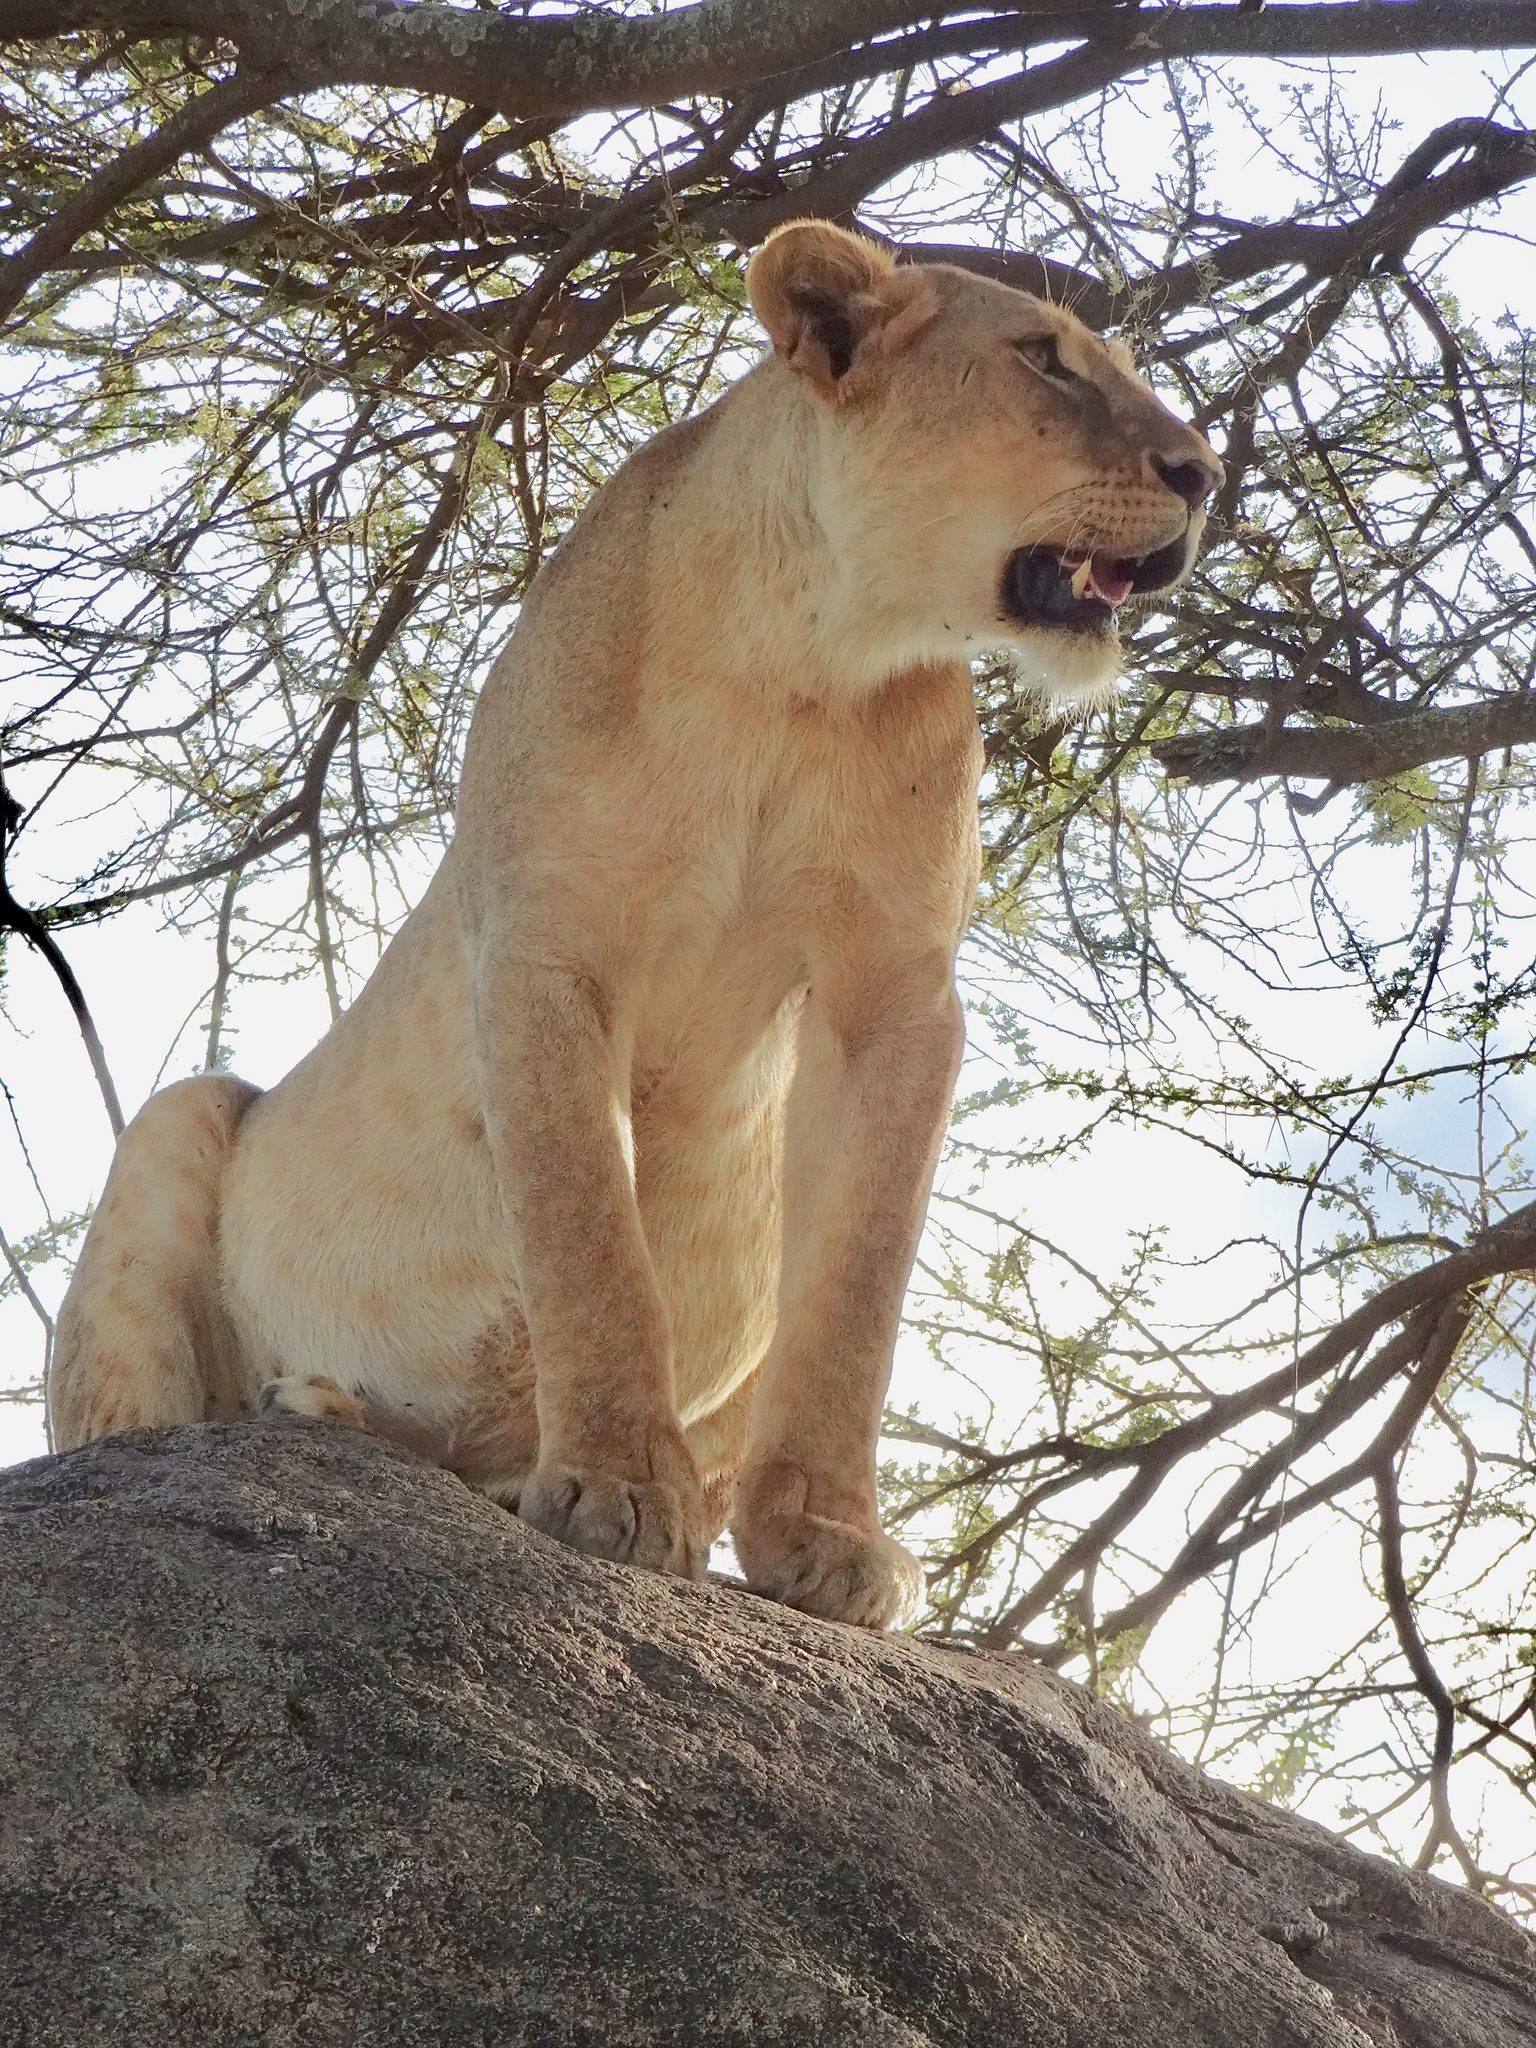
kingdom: Animalia
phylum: Chordata
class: Mammalia
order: Carnivora
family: Felidae
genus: Panthera
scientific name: Panthera leo
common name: Lion
